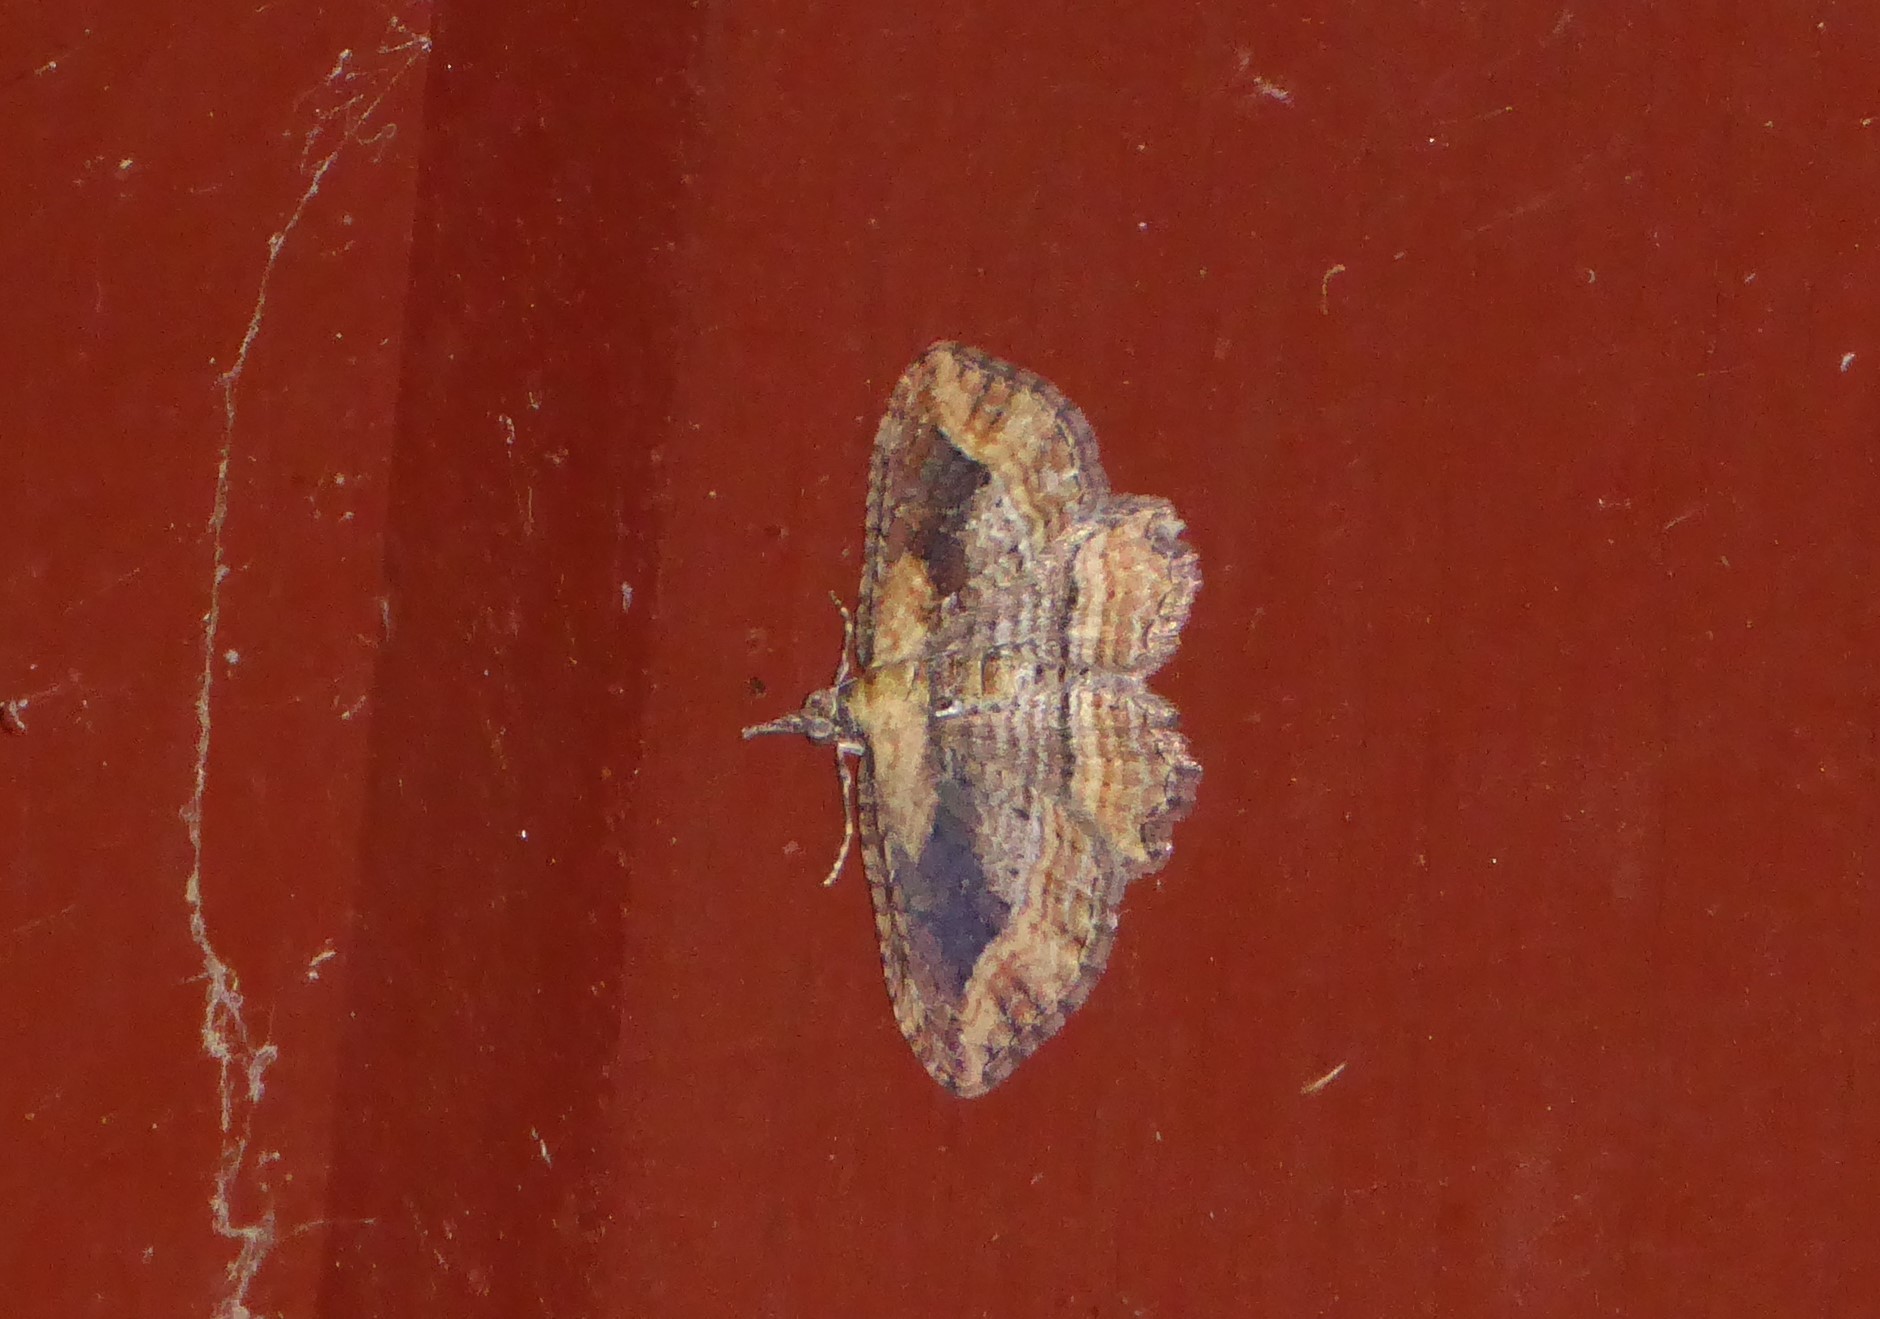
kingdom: Animalia
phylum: Arthropoda
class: Insecta
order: Lepidoptera
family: Geometridae
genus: Chloroclystis
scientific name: Chloroclystis filata
